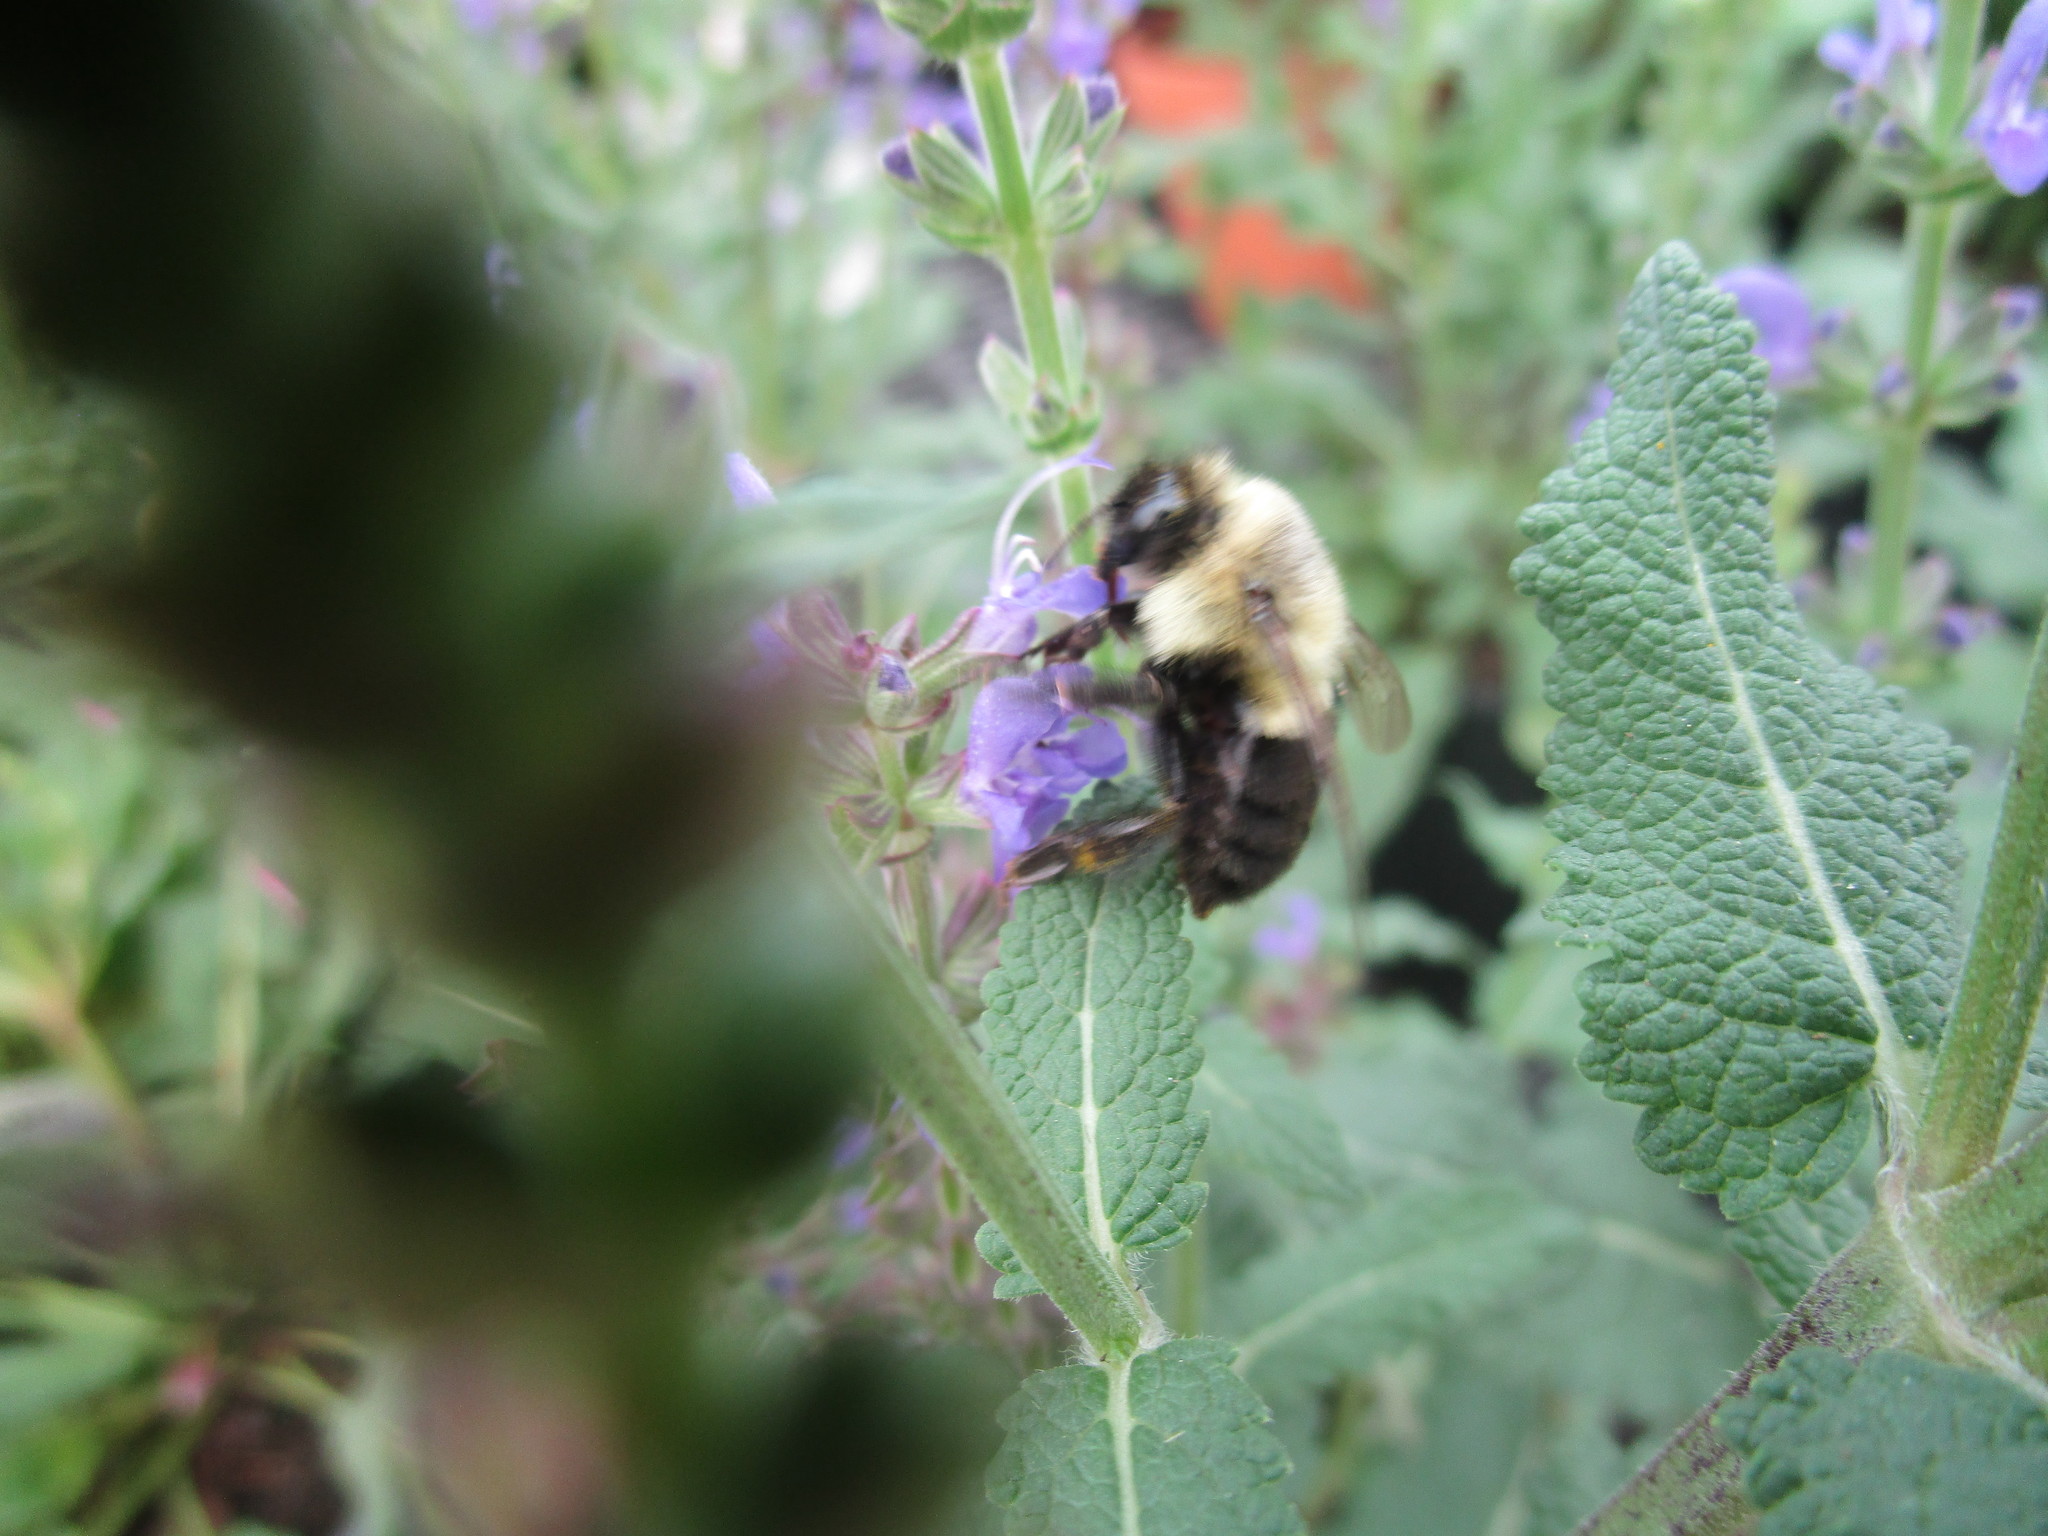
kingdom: Animalia
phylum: Arthropoda
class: Insecta
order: Hymenoptera
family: Apidae
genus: Bombus
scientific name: Bombus impatiens
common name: Common eastern bumble bee
